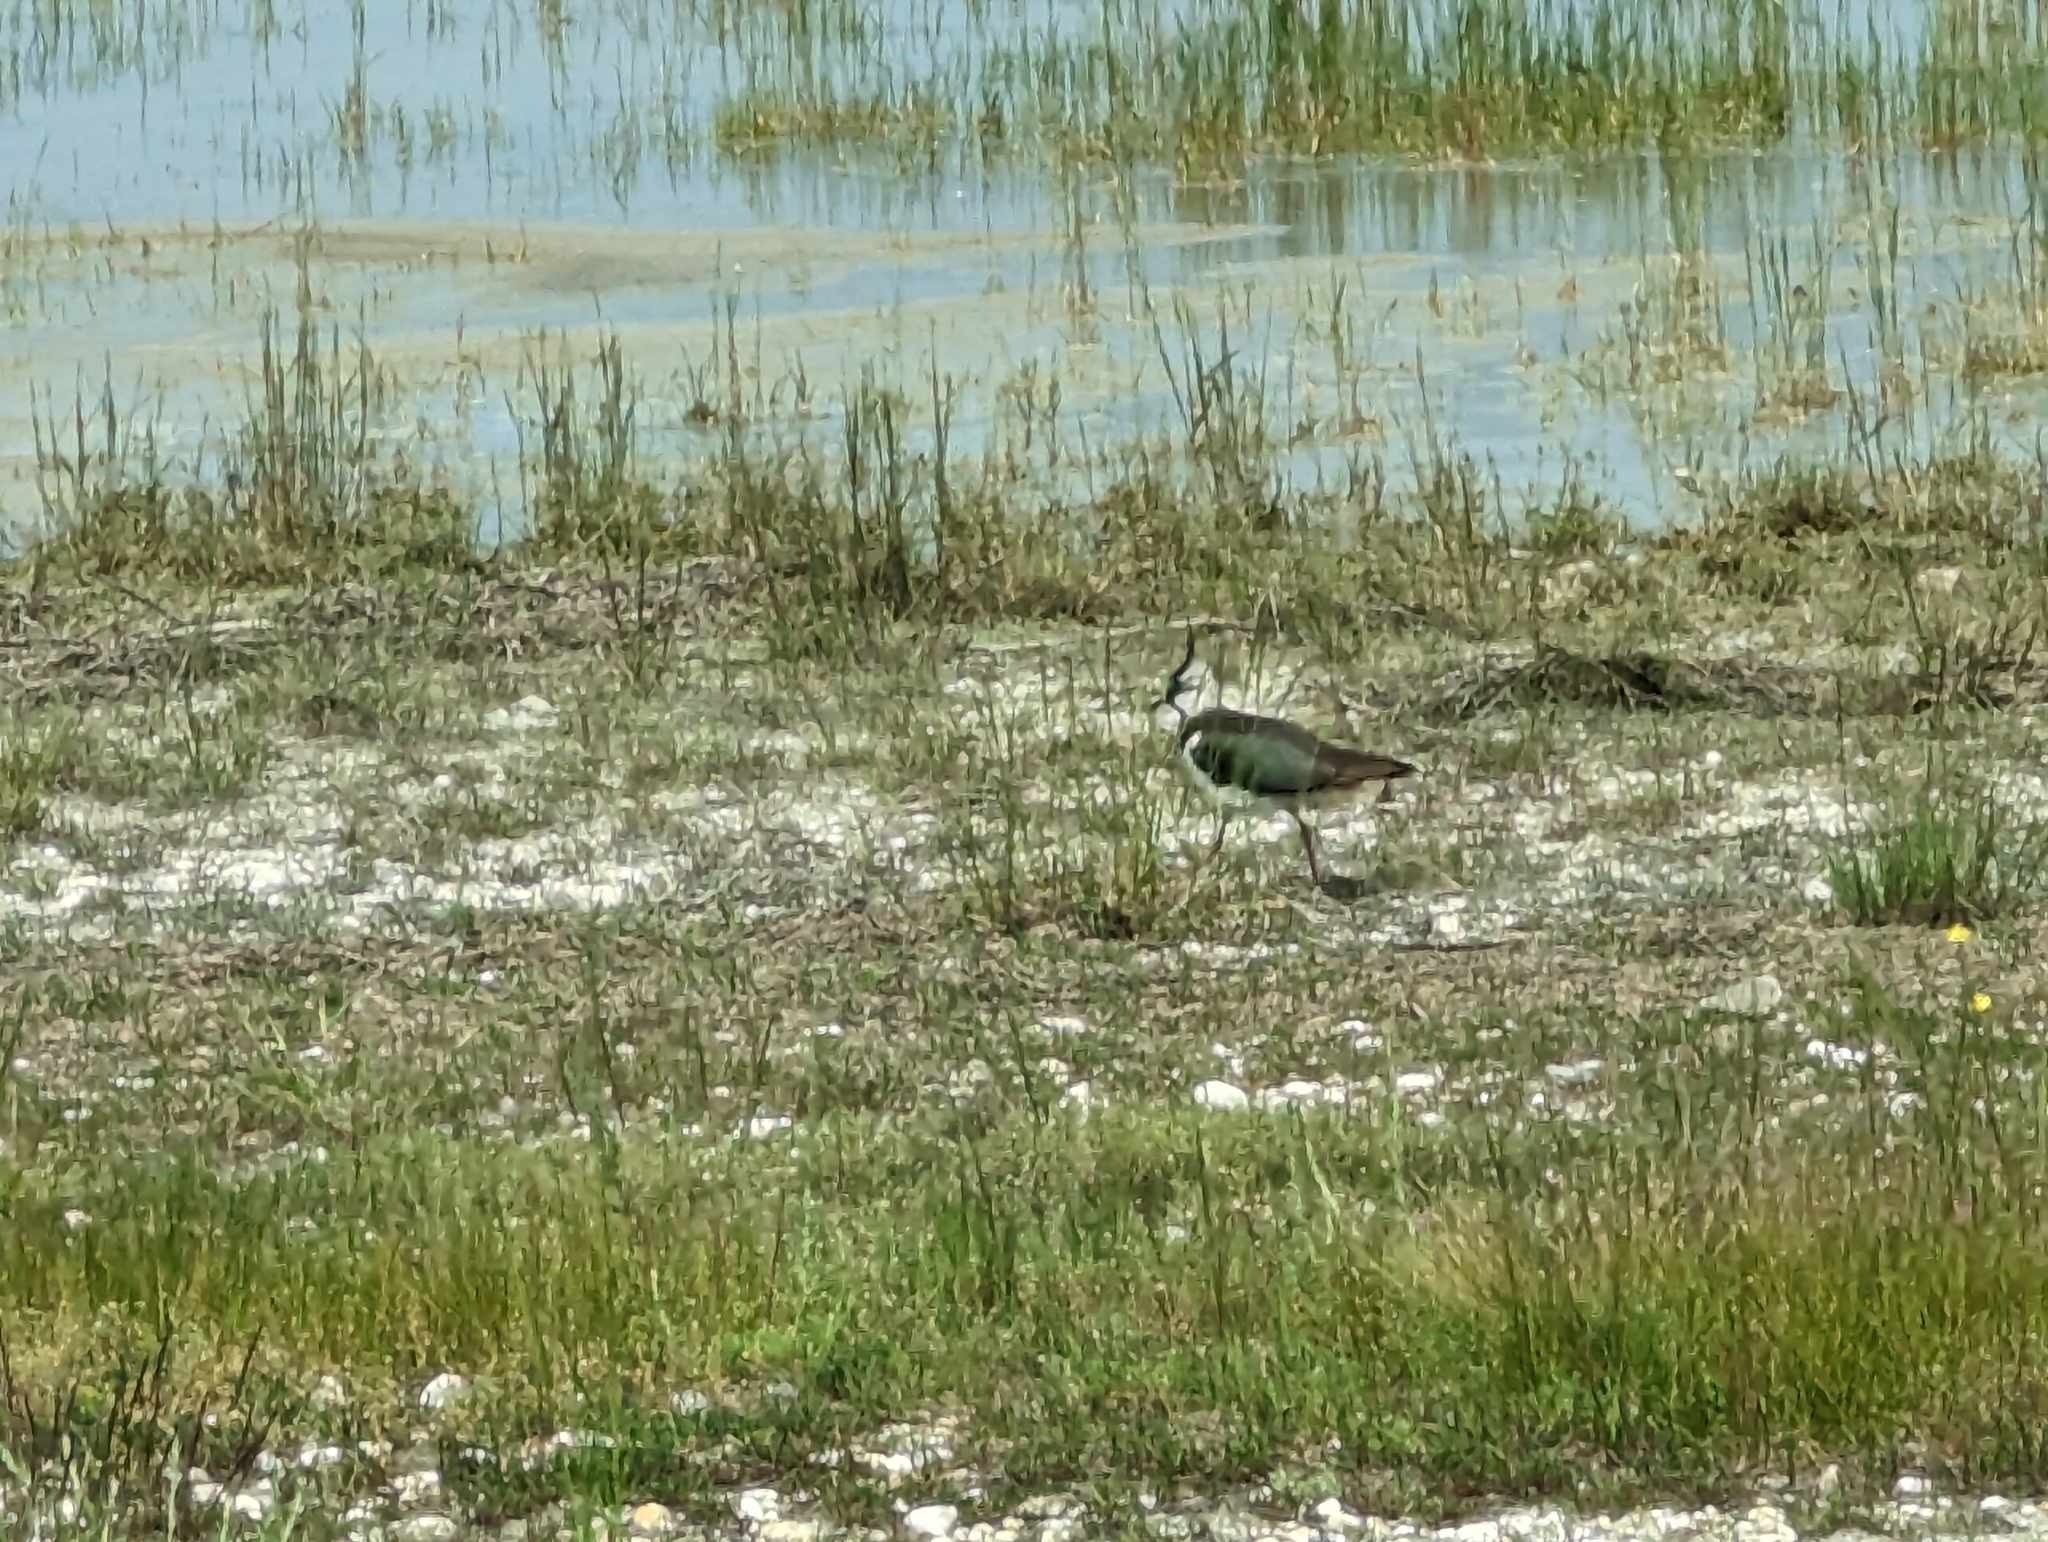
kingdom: Animalia
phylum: Chordata
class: Aves
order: Charadriiformes
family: Charadriidae
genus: Vanellus
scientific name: Vanellus vanellus
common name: Northern lapwing
